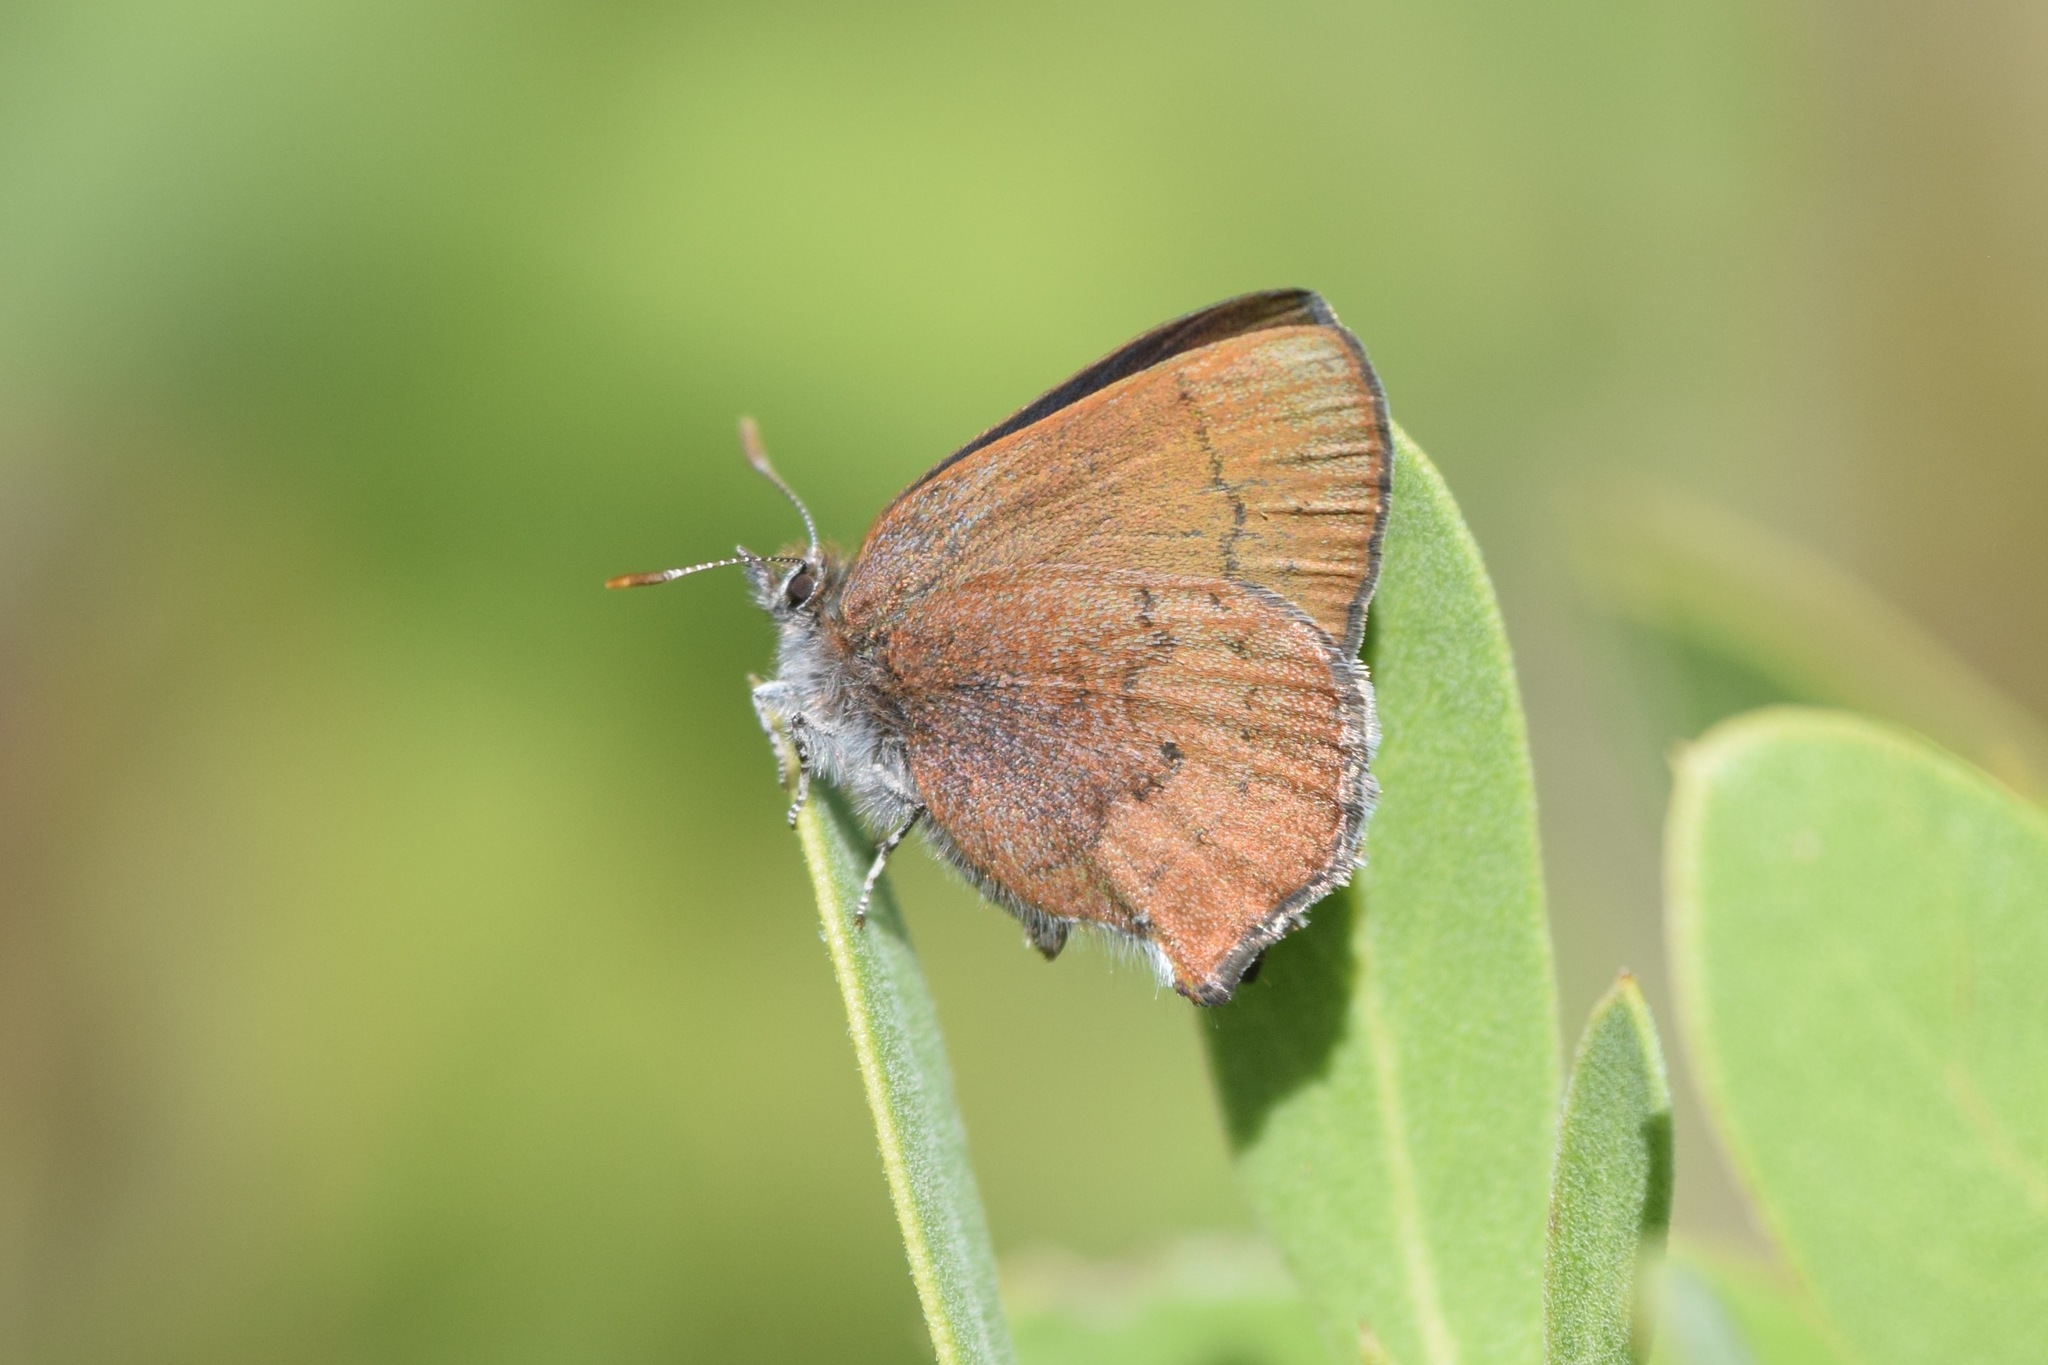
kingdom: Animalia
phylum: Arthropoda
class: Insecta
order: Lepidoptera
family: Lycaenidae
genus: Incisalia
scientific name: Incisalia irioides
